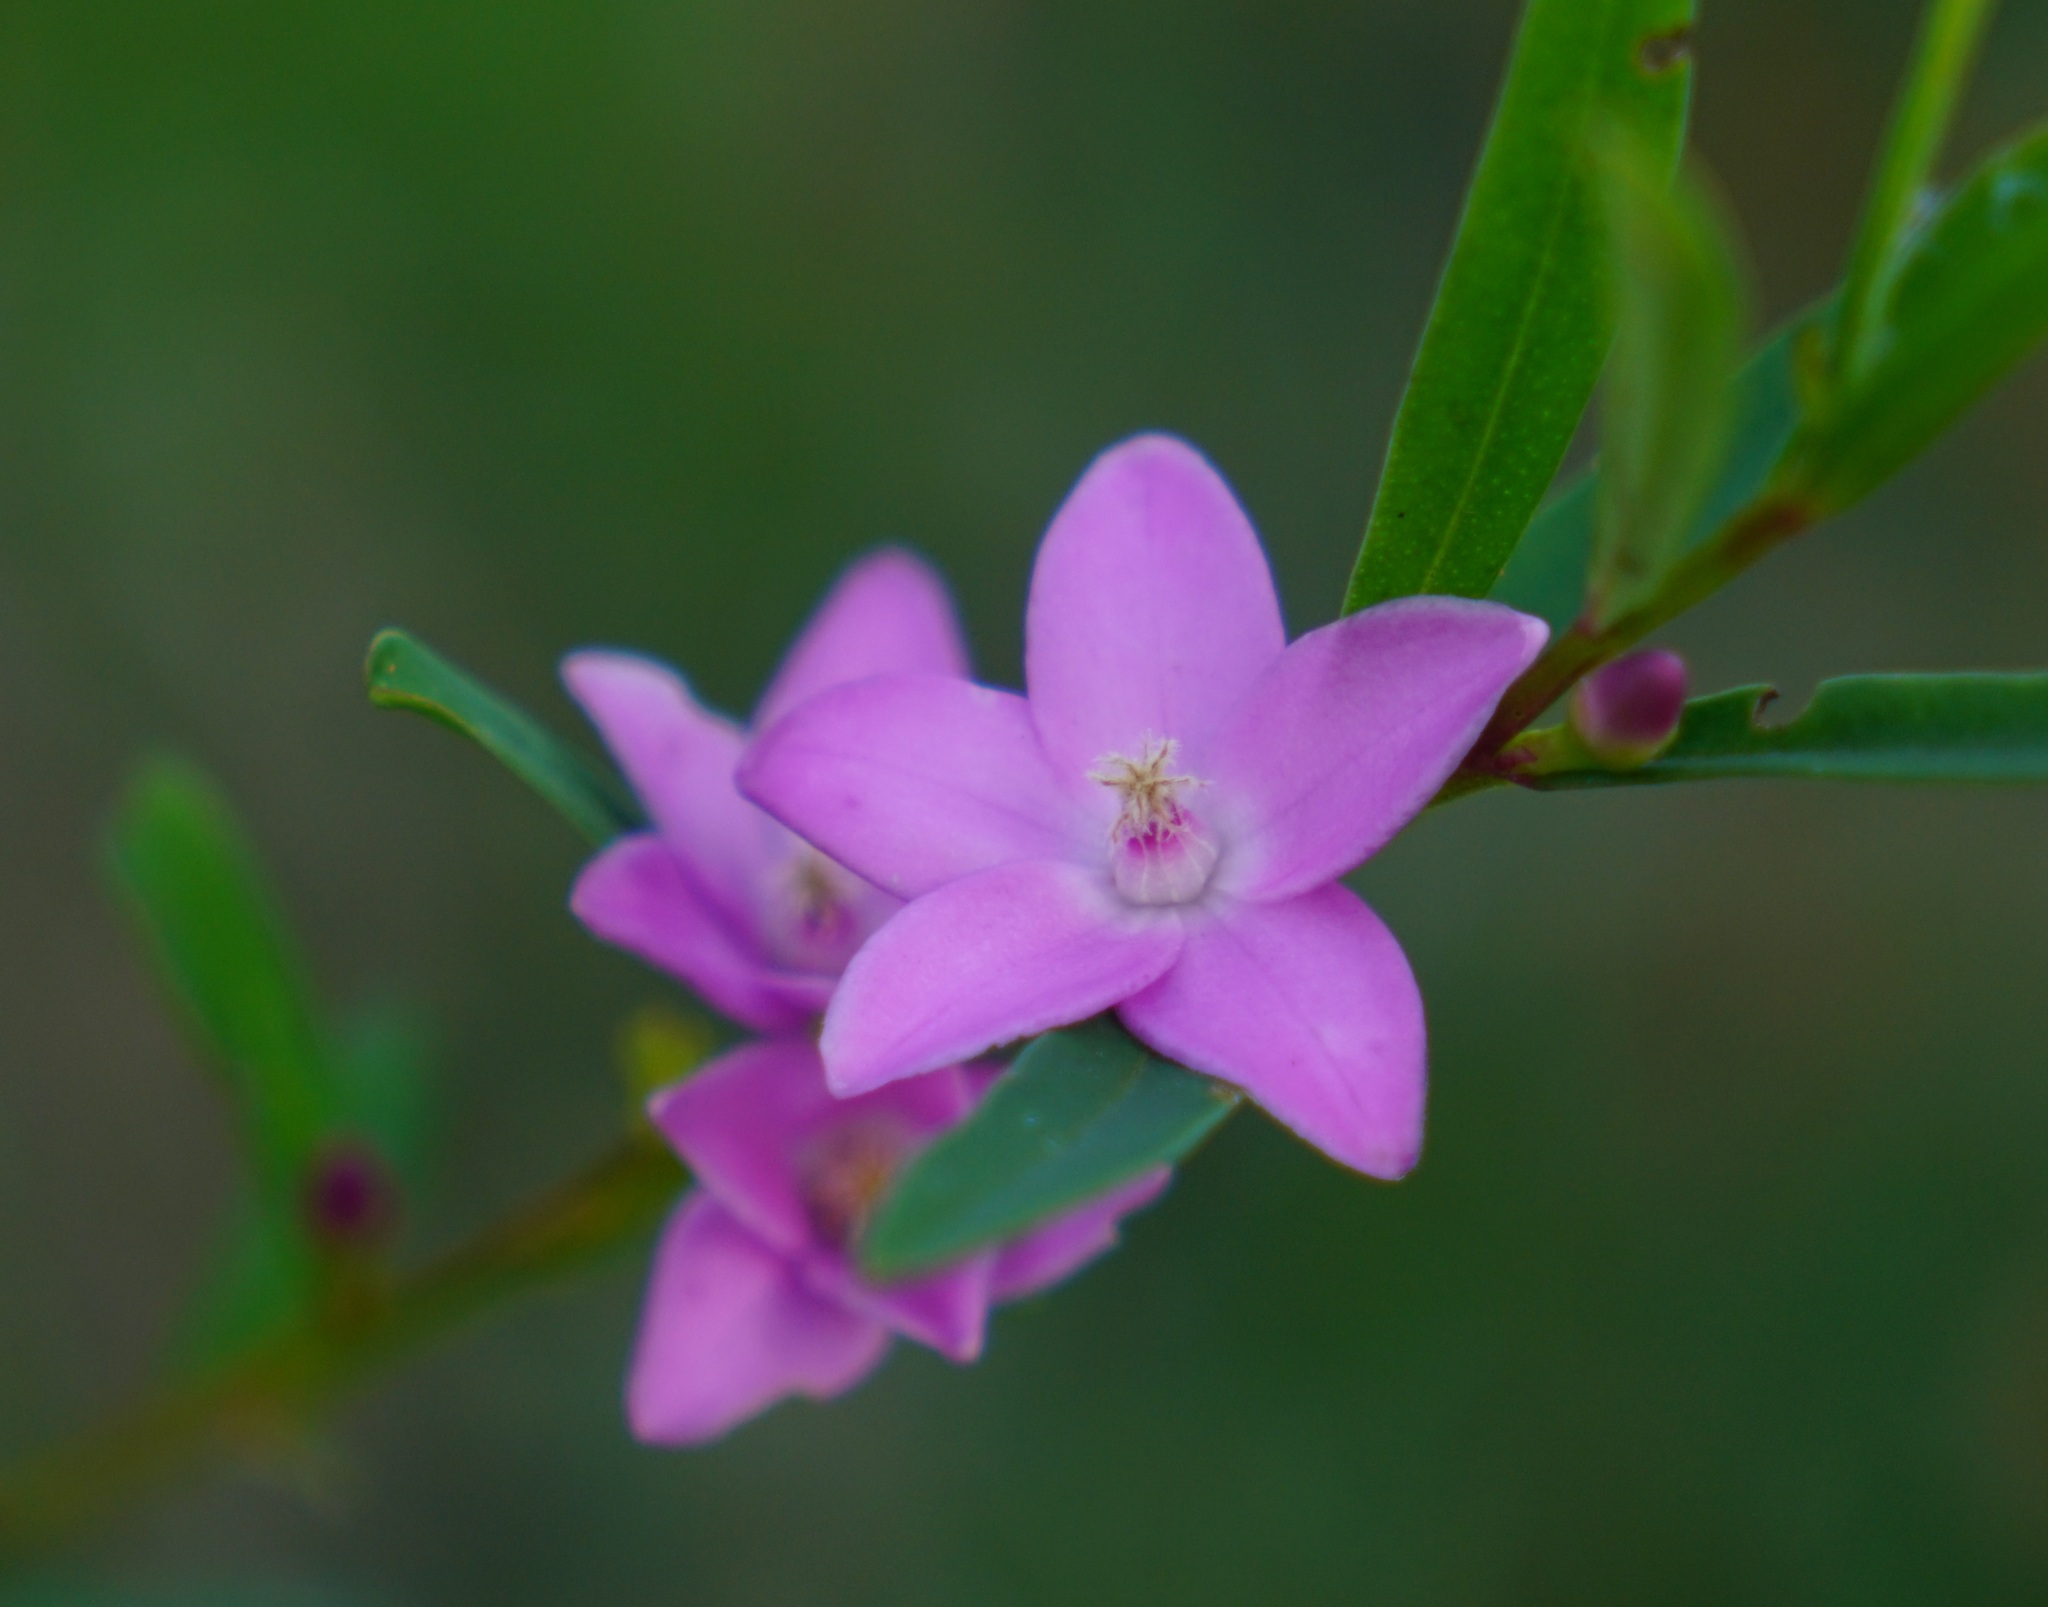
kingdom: Plantae
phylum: Tracheophyta
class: Magnoliopsida
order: Sapindales
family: Rutaceae
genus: Crowea
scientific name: Crowea saligna
